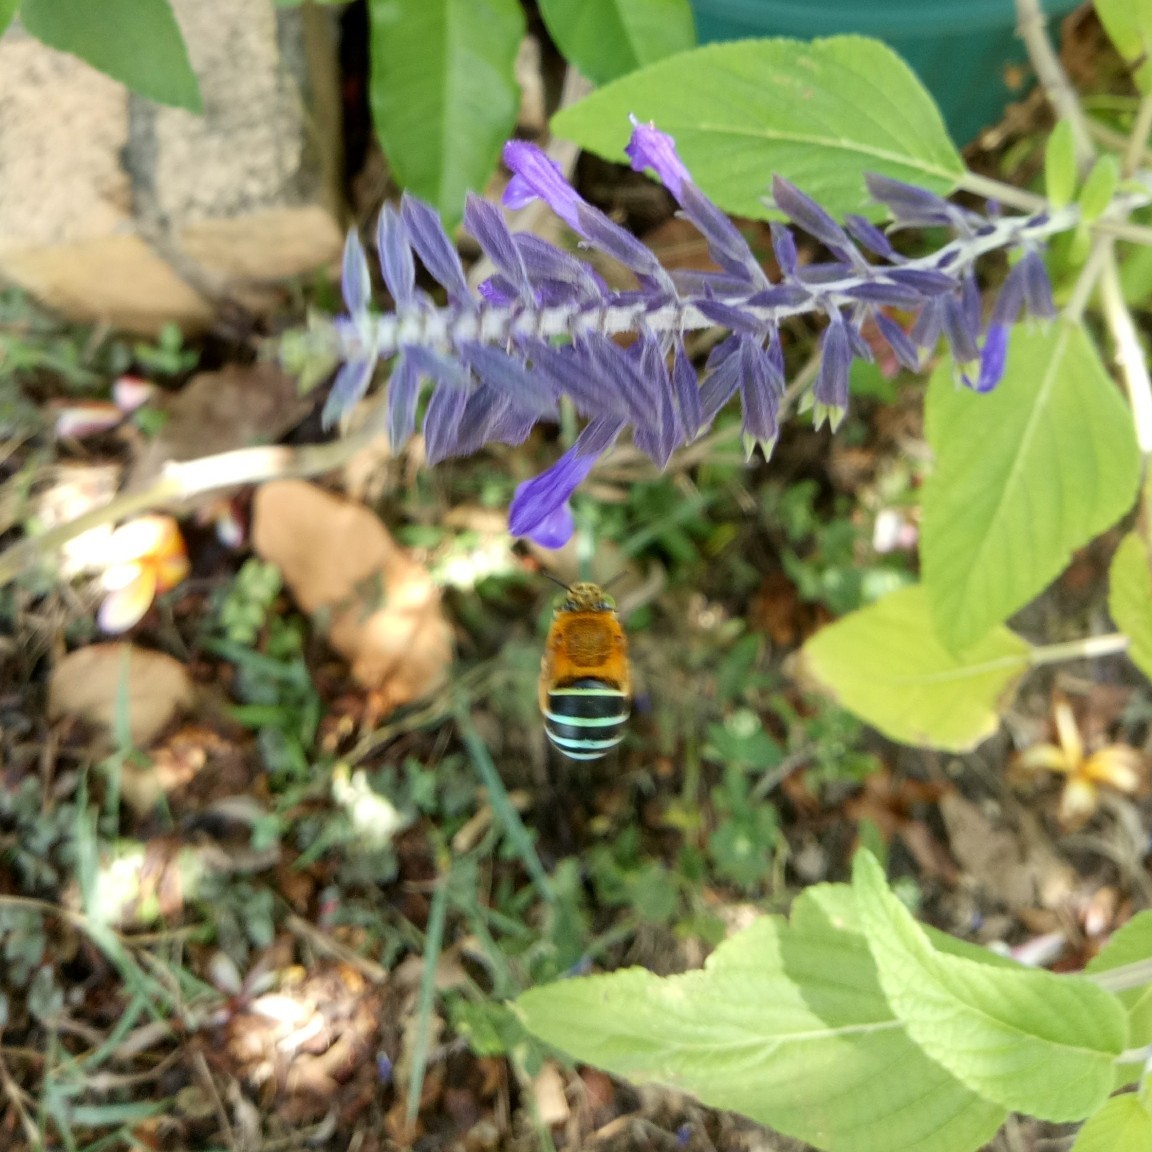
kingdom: Animalia
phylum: Arthropoda
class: Insecta
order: Hymenoptera
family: Apidae
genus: Amegilla
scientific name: Amegilla cingulata
